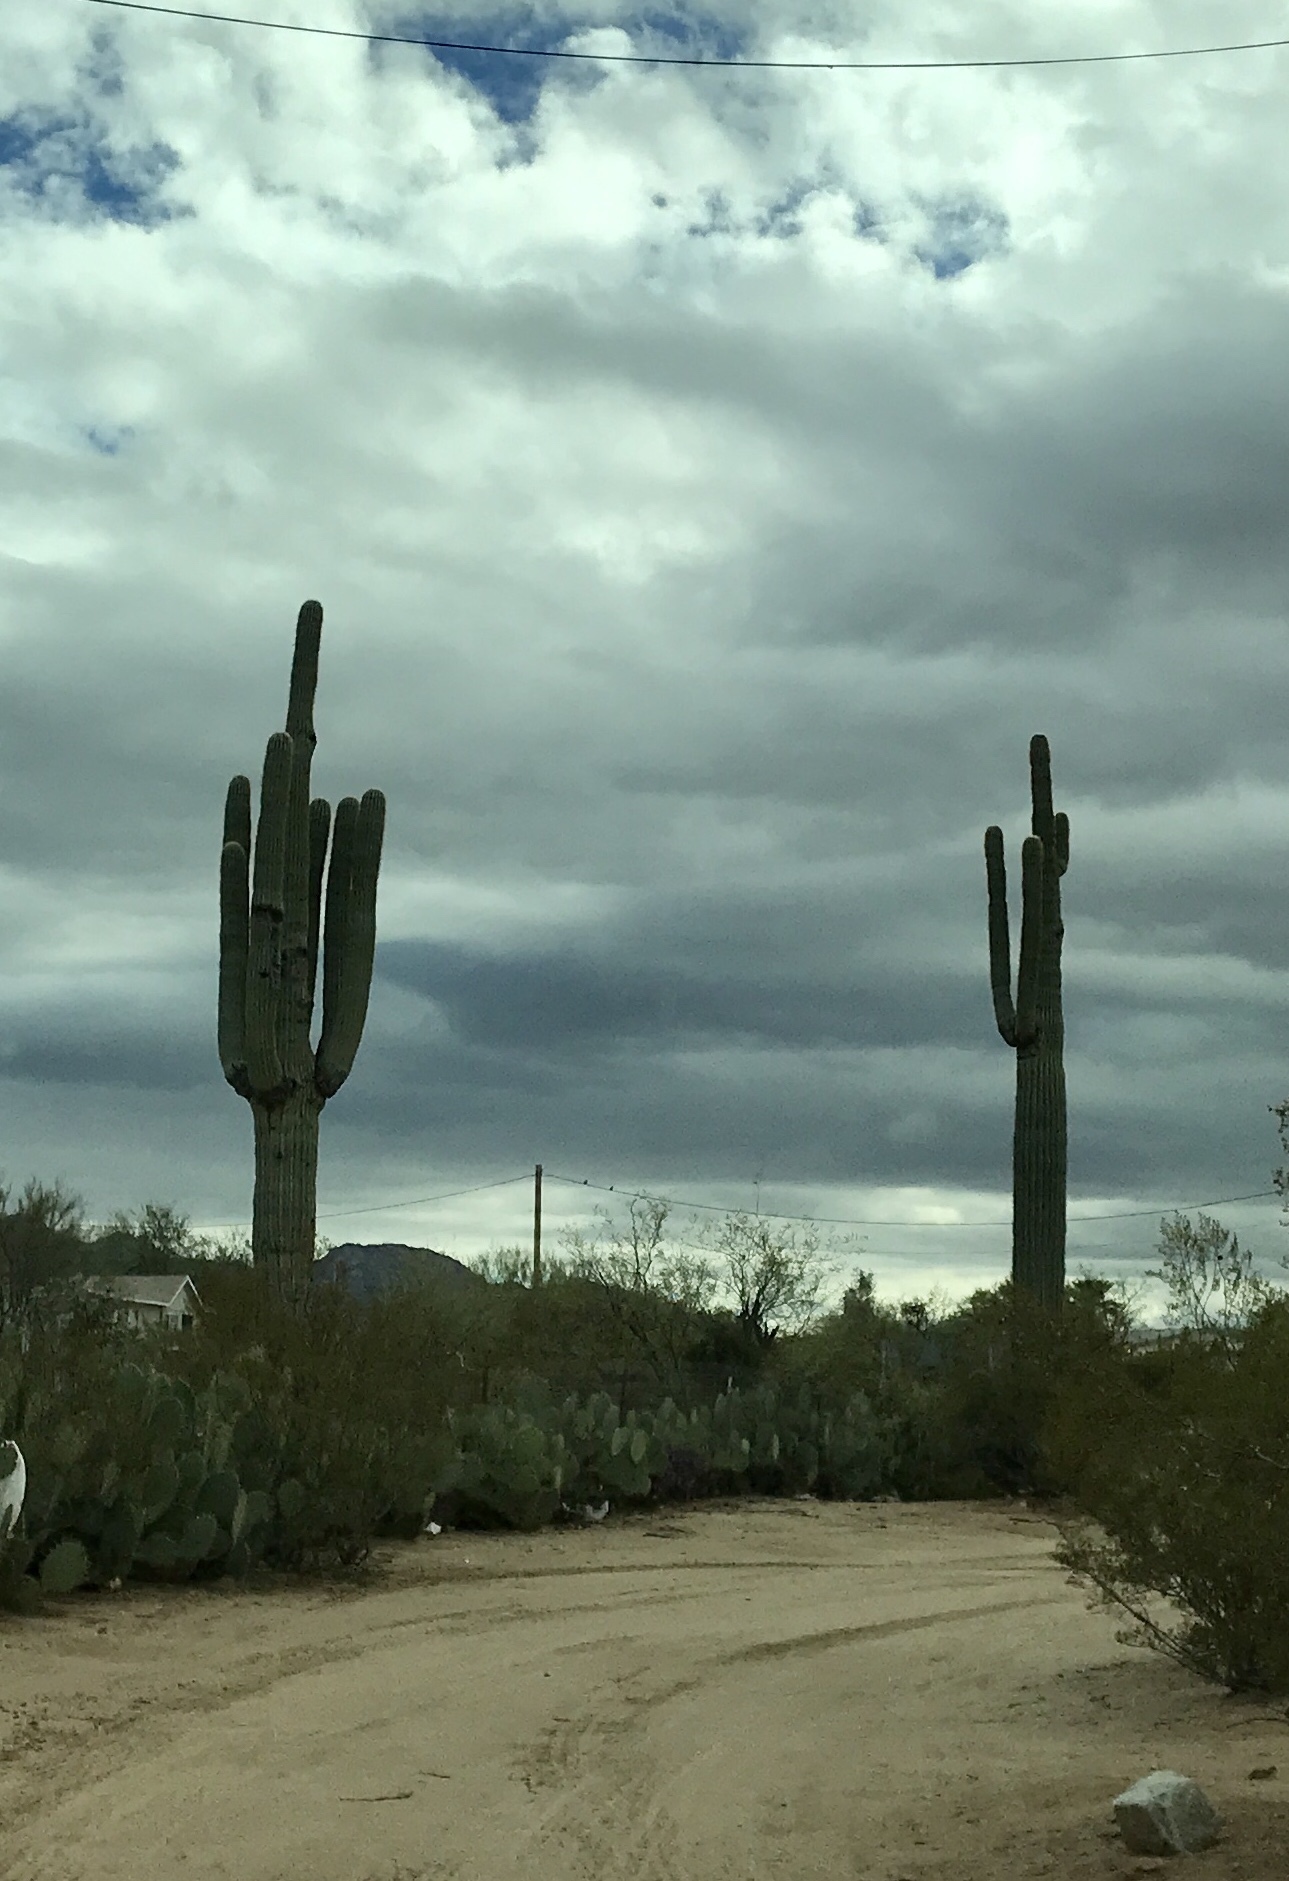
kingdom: Plantae
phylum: Tracheophyta
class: Magnoliopsida
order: Caryophyllales
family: Cactaceae
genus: Carnegiea
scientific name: Carnegiea gigantea
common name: Saguaro
